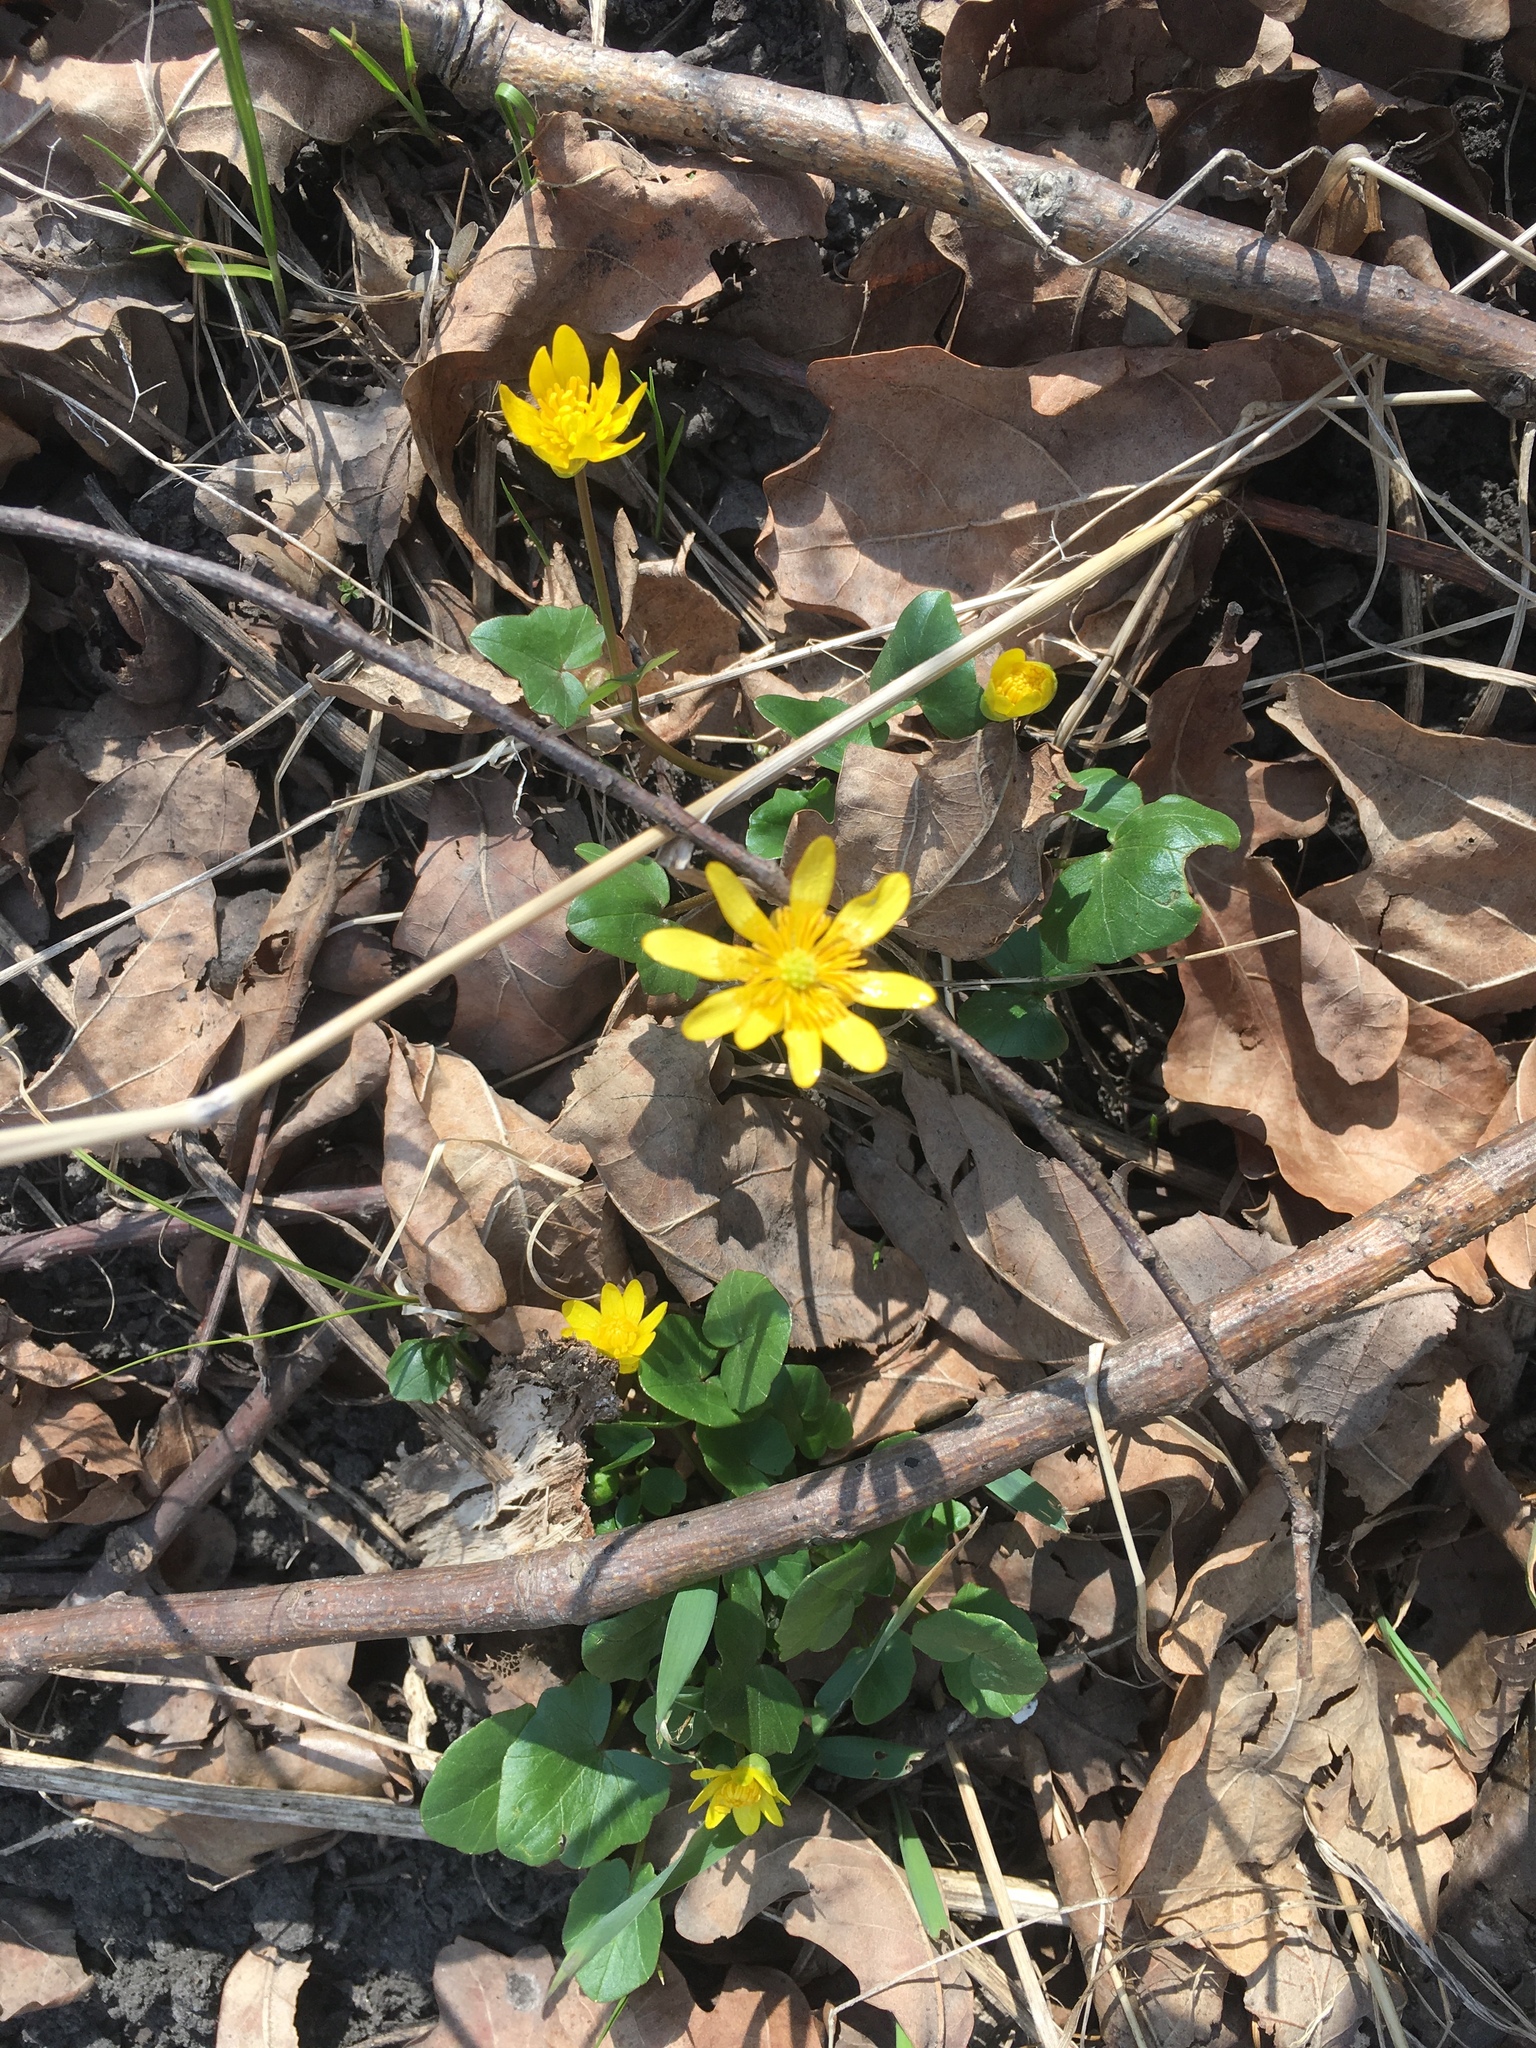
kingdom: Plantae
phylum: Tracheophyta
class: Magnoliopsida
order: Ranunculales
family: Ranunculaceae
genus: Ficaria
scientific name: Ficaria verna
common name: Lesser celandine
